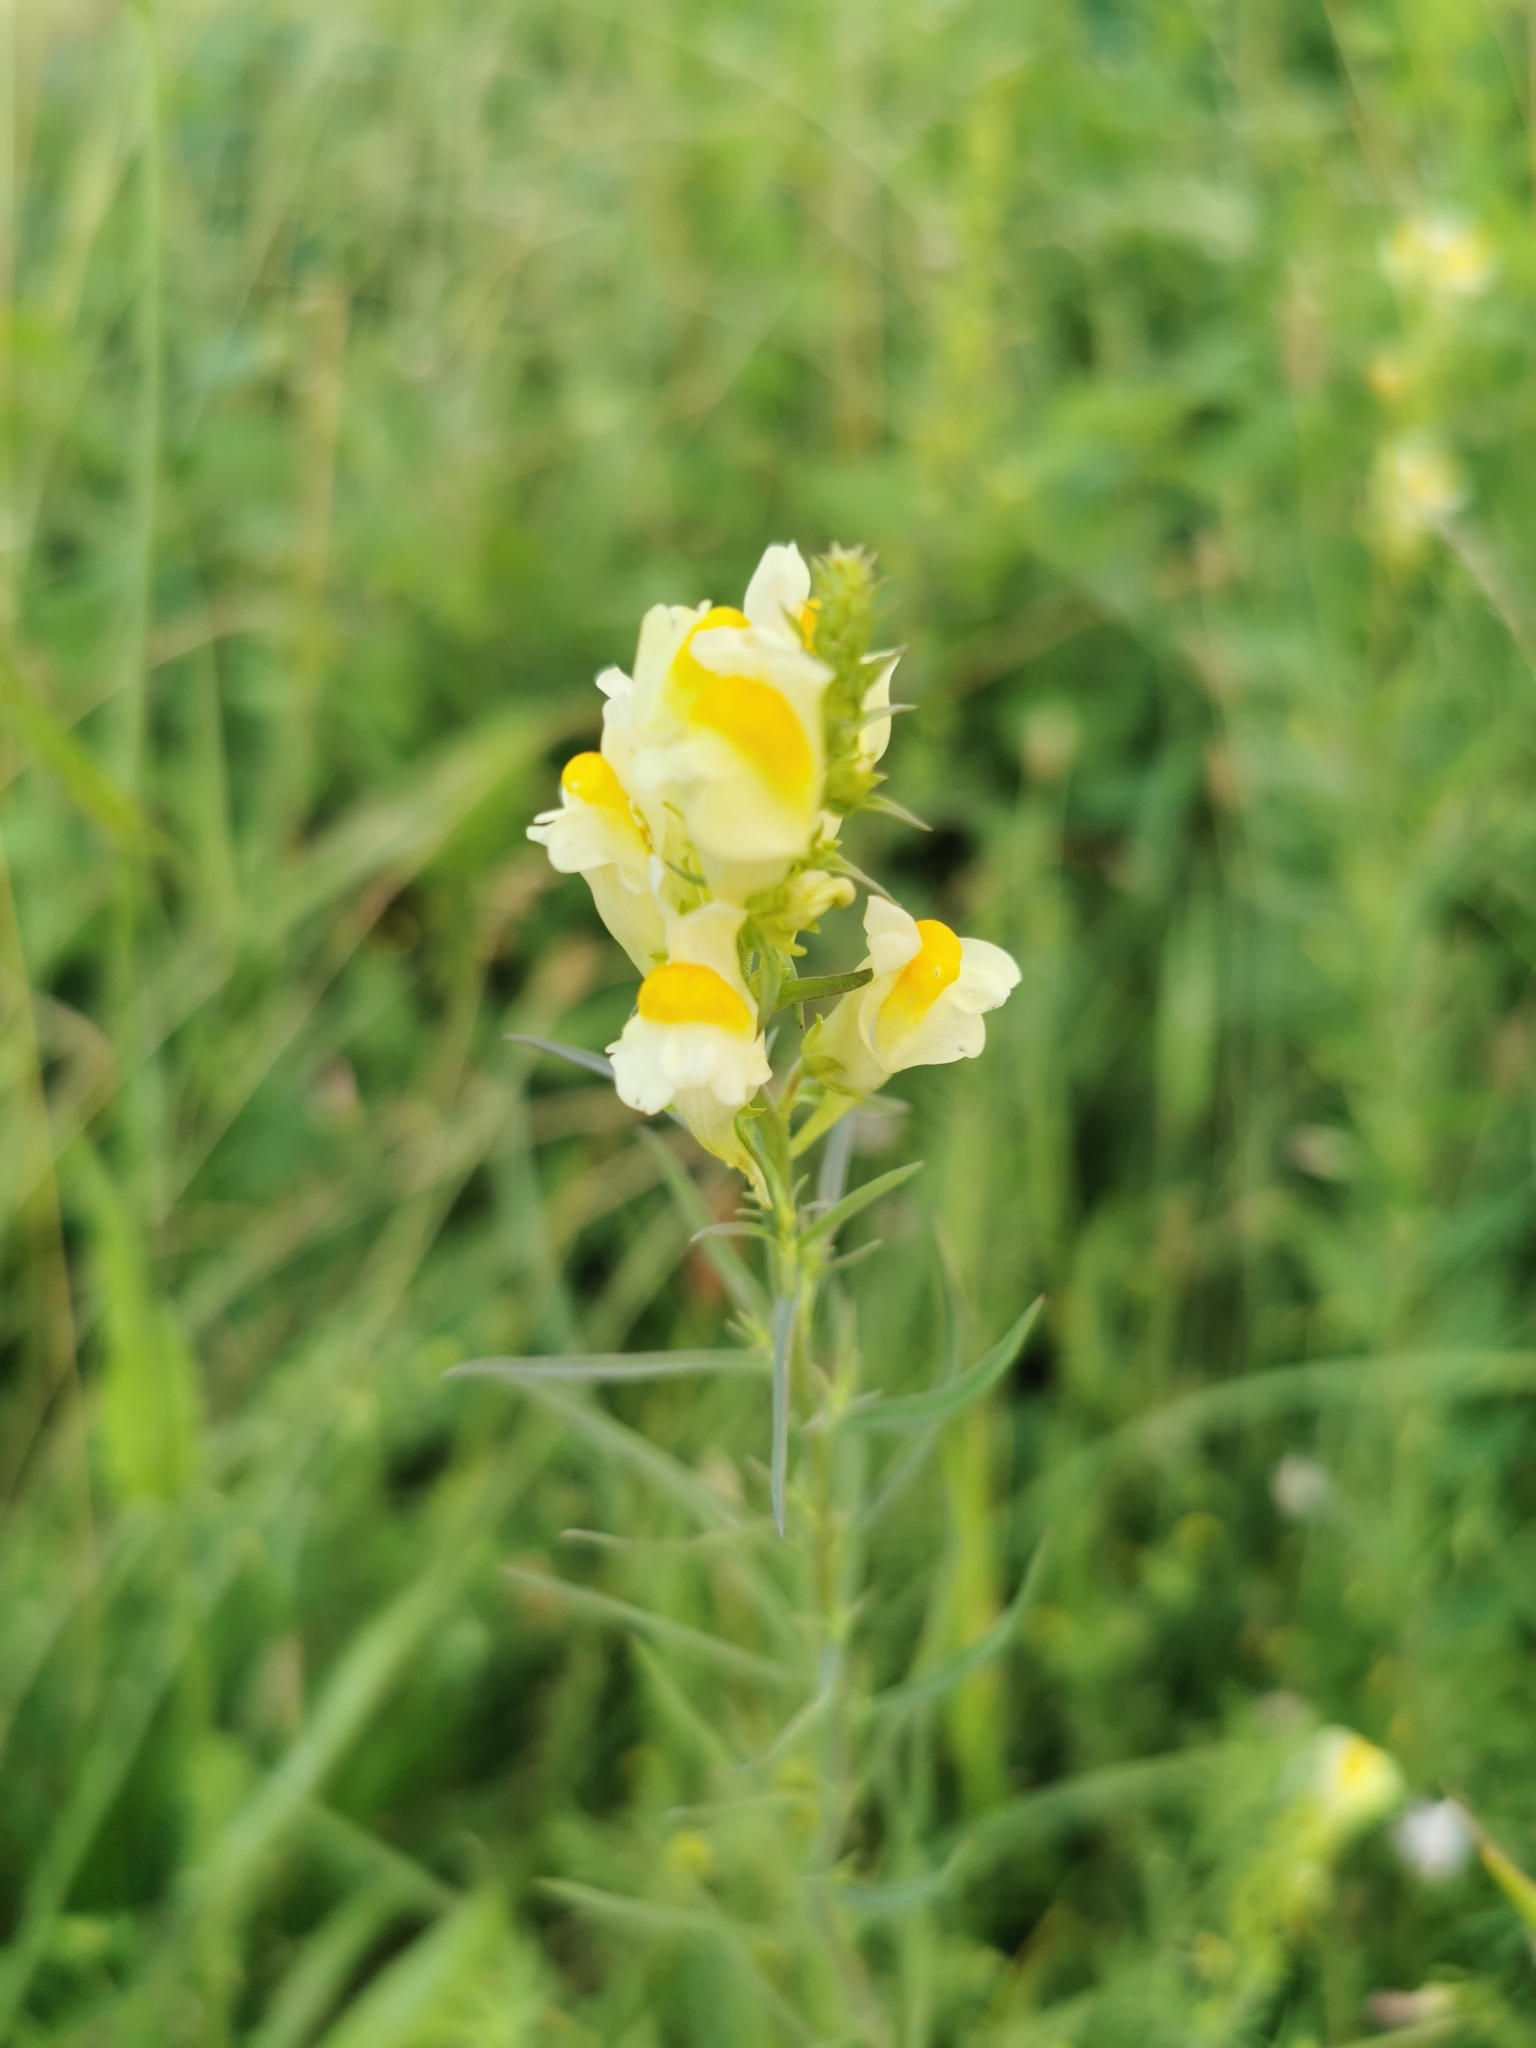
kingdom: Plantae
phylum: Tracheophyta
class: Magnoliopsida
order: Lamiales
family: Plantaginaceae
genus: Linaria
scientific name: Linaria vulgaris
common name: Butter and eggs
